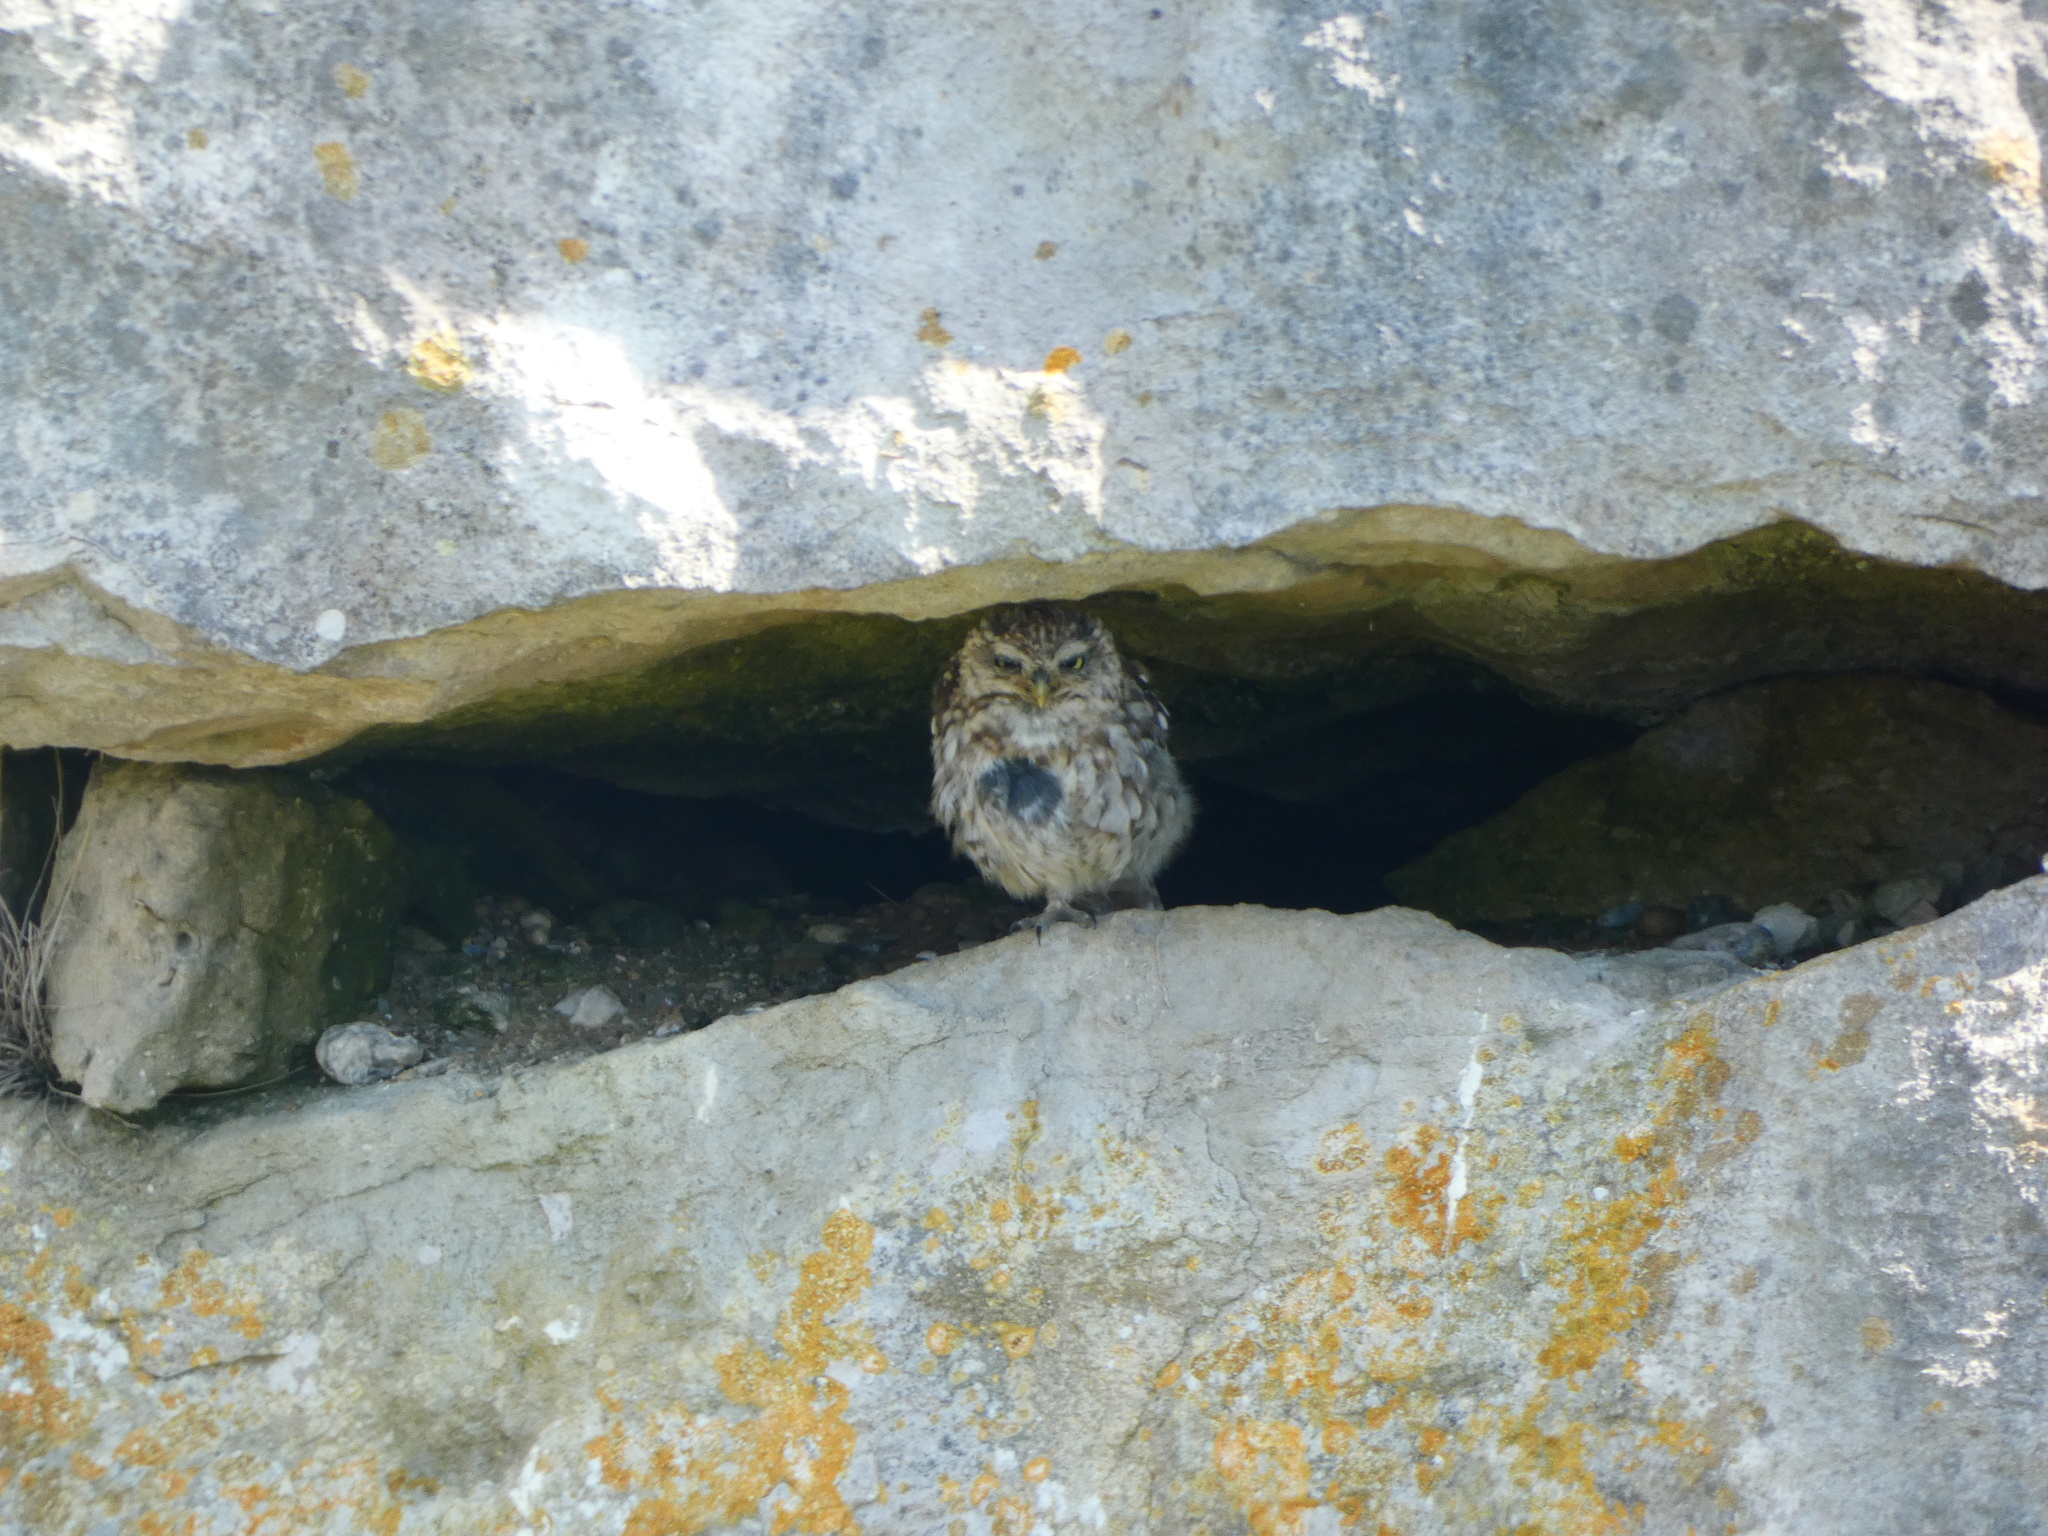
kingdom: Animalia
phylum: Chordata
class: Aves
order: Strigiformes
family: Strigidae
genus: Athene
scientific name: Athene noctua
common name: Little owl
